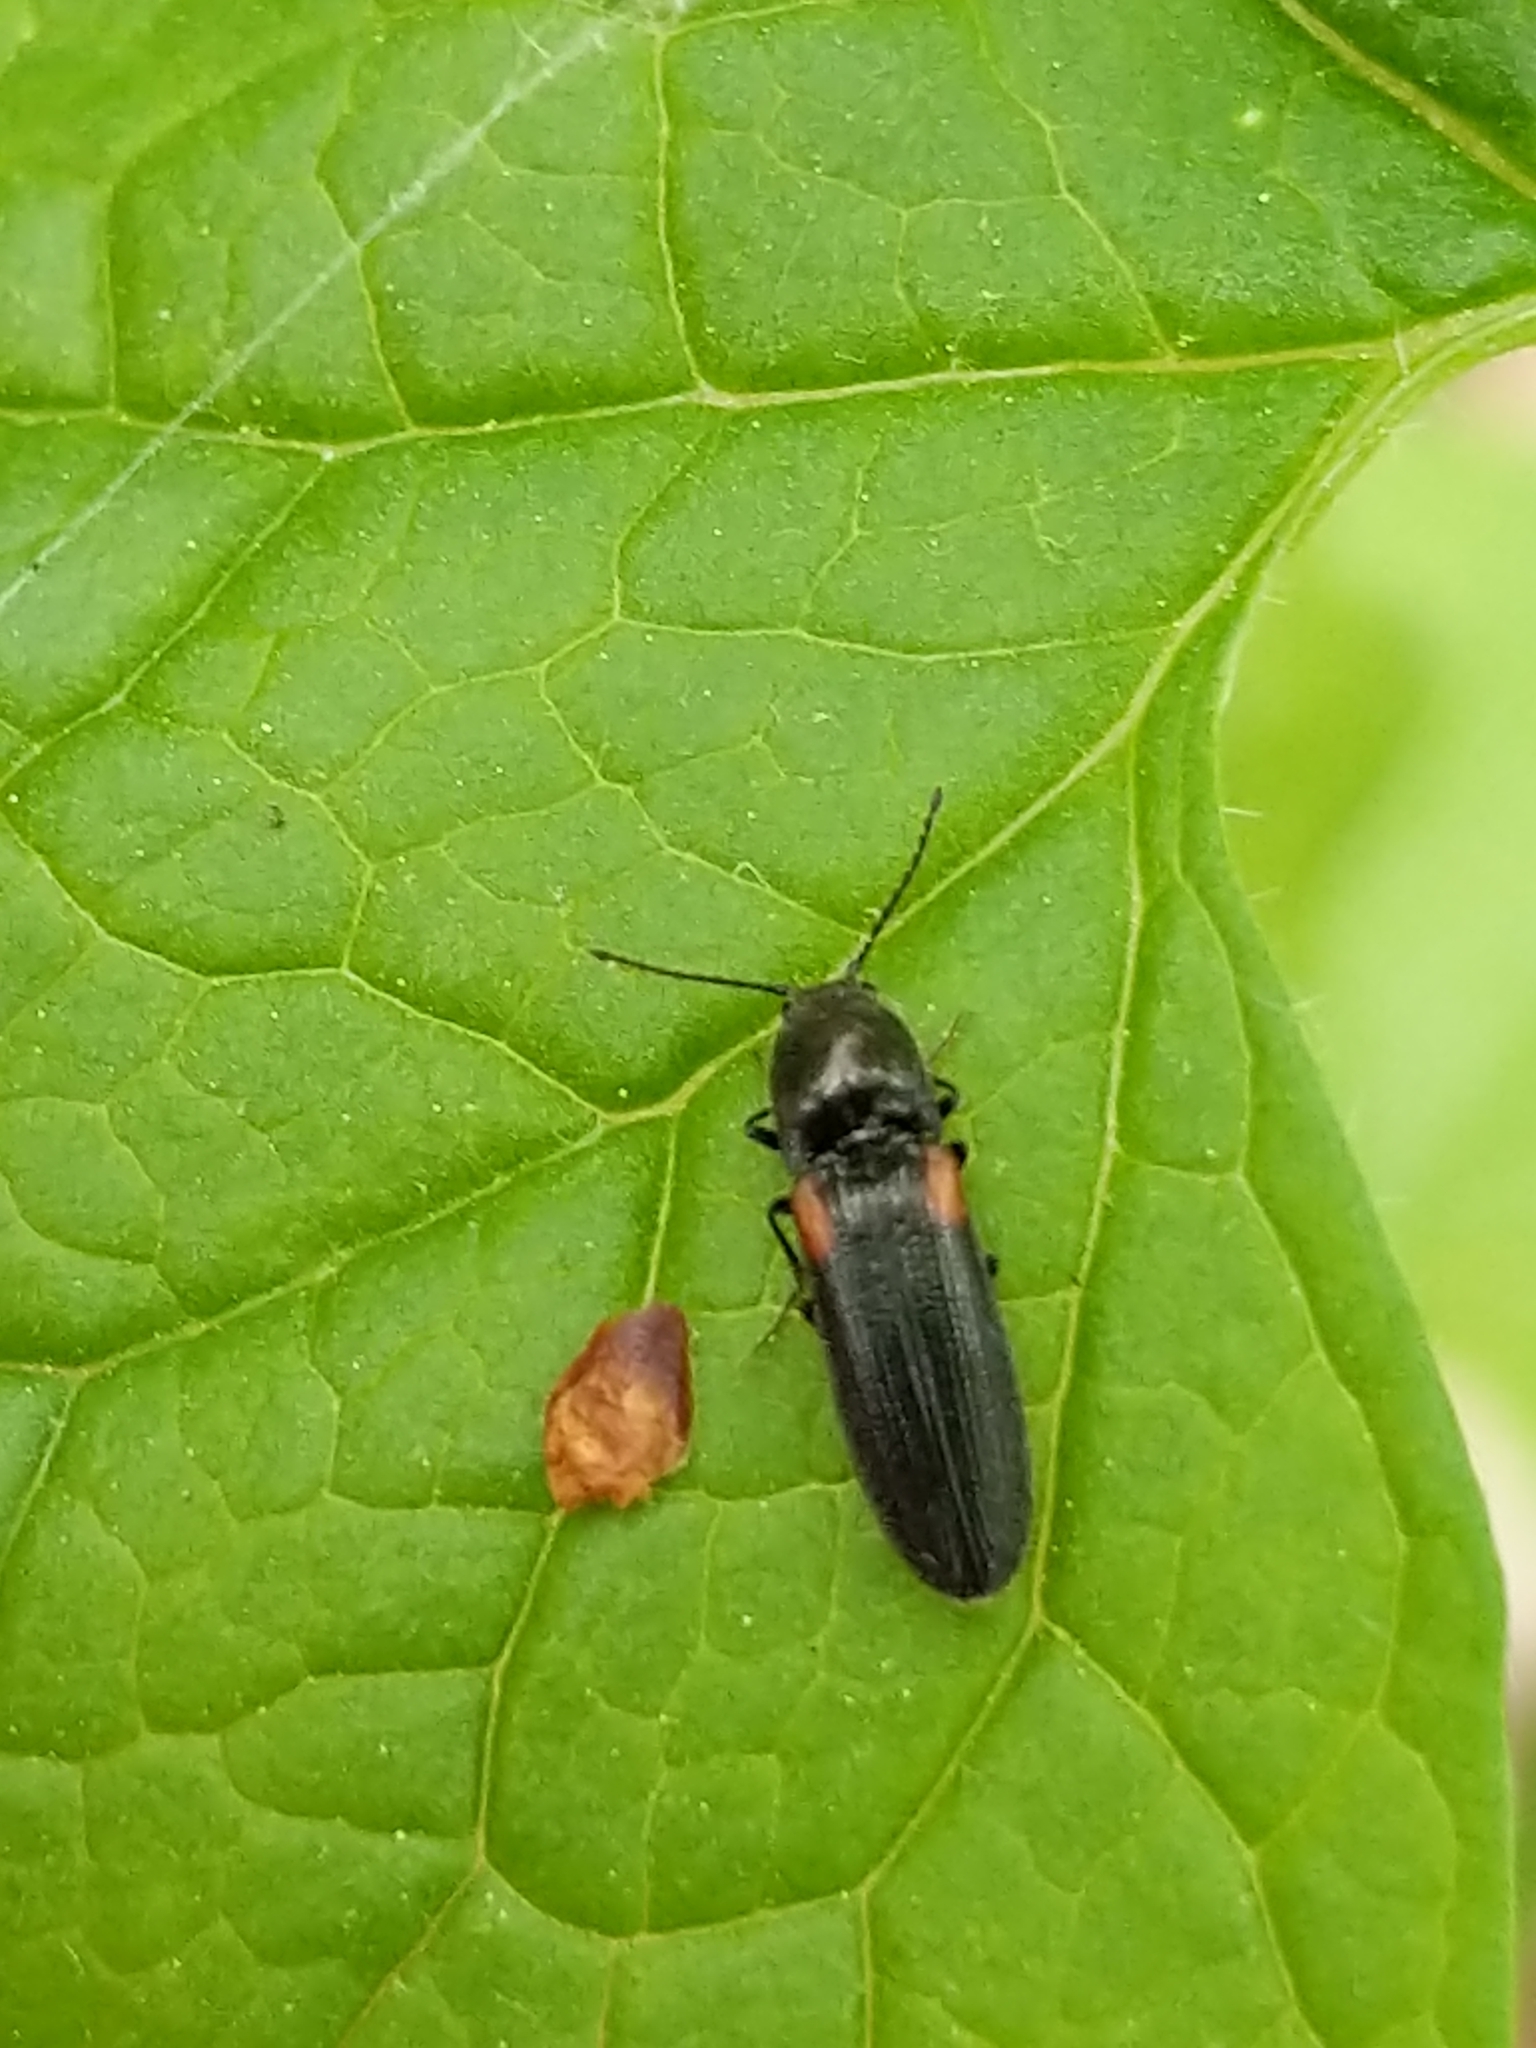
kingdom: Animalia
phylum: Arthropoda
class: Insecta
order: Coleoptera
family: Elateridae
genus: Gambrinus
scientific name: Gambrinus
